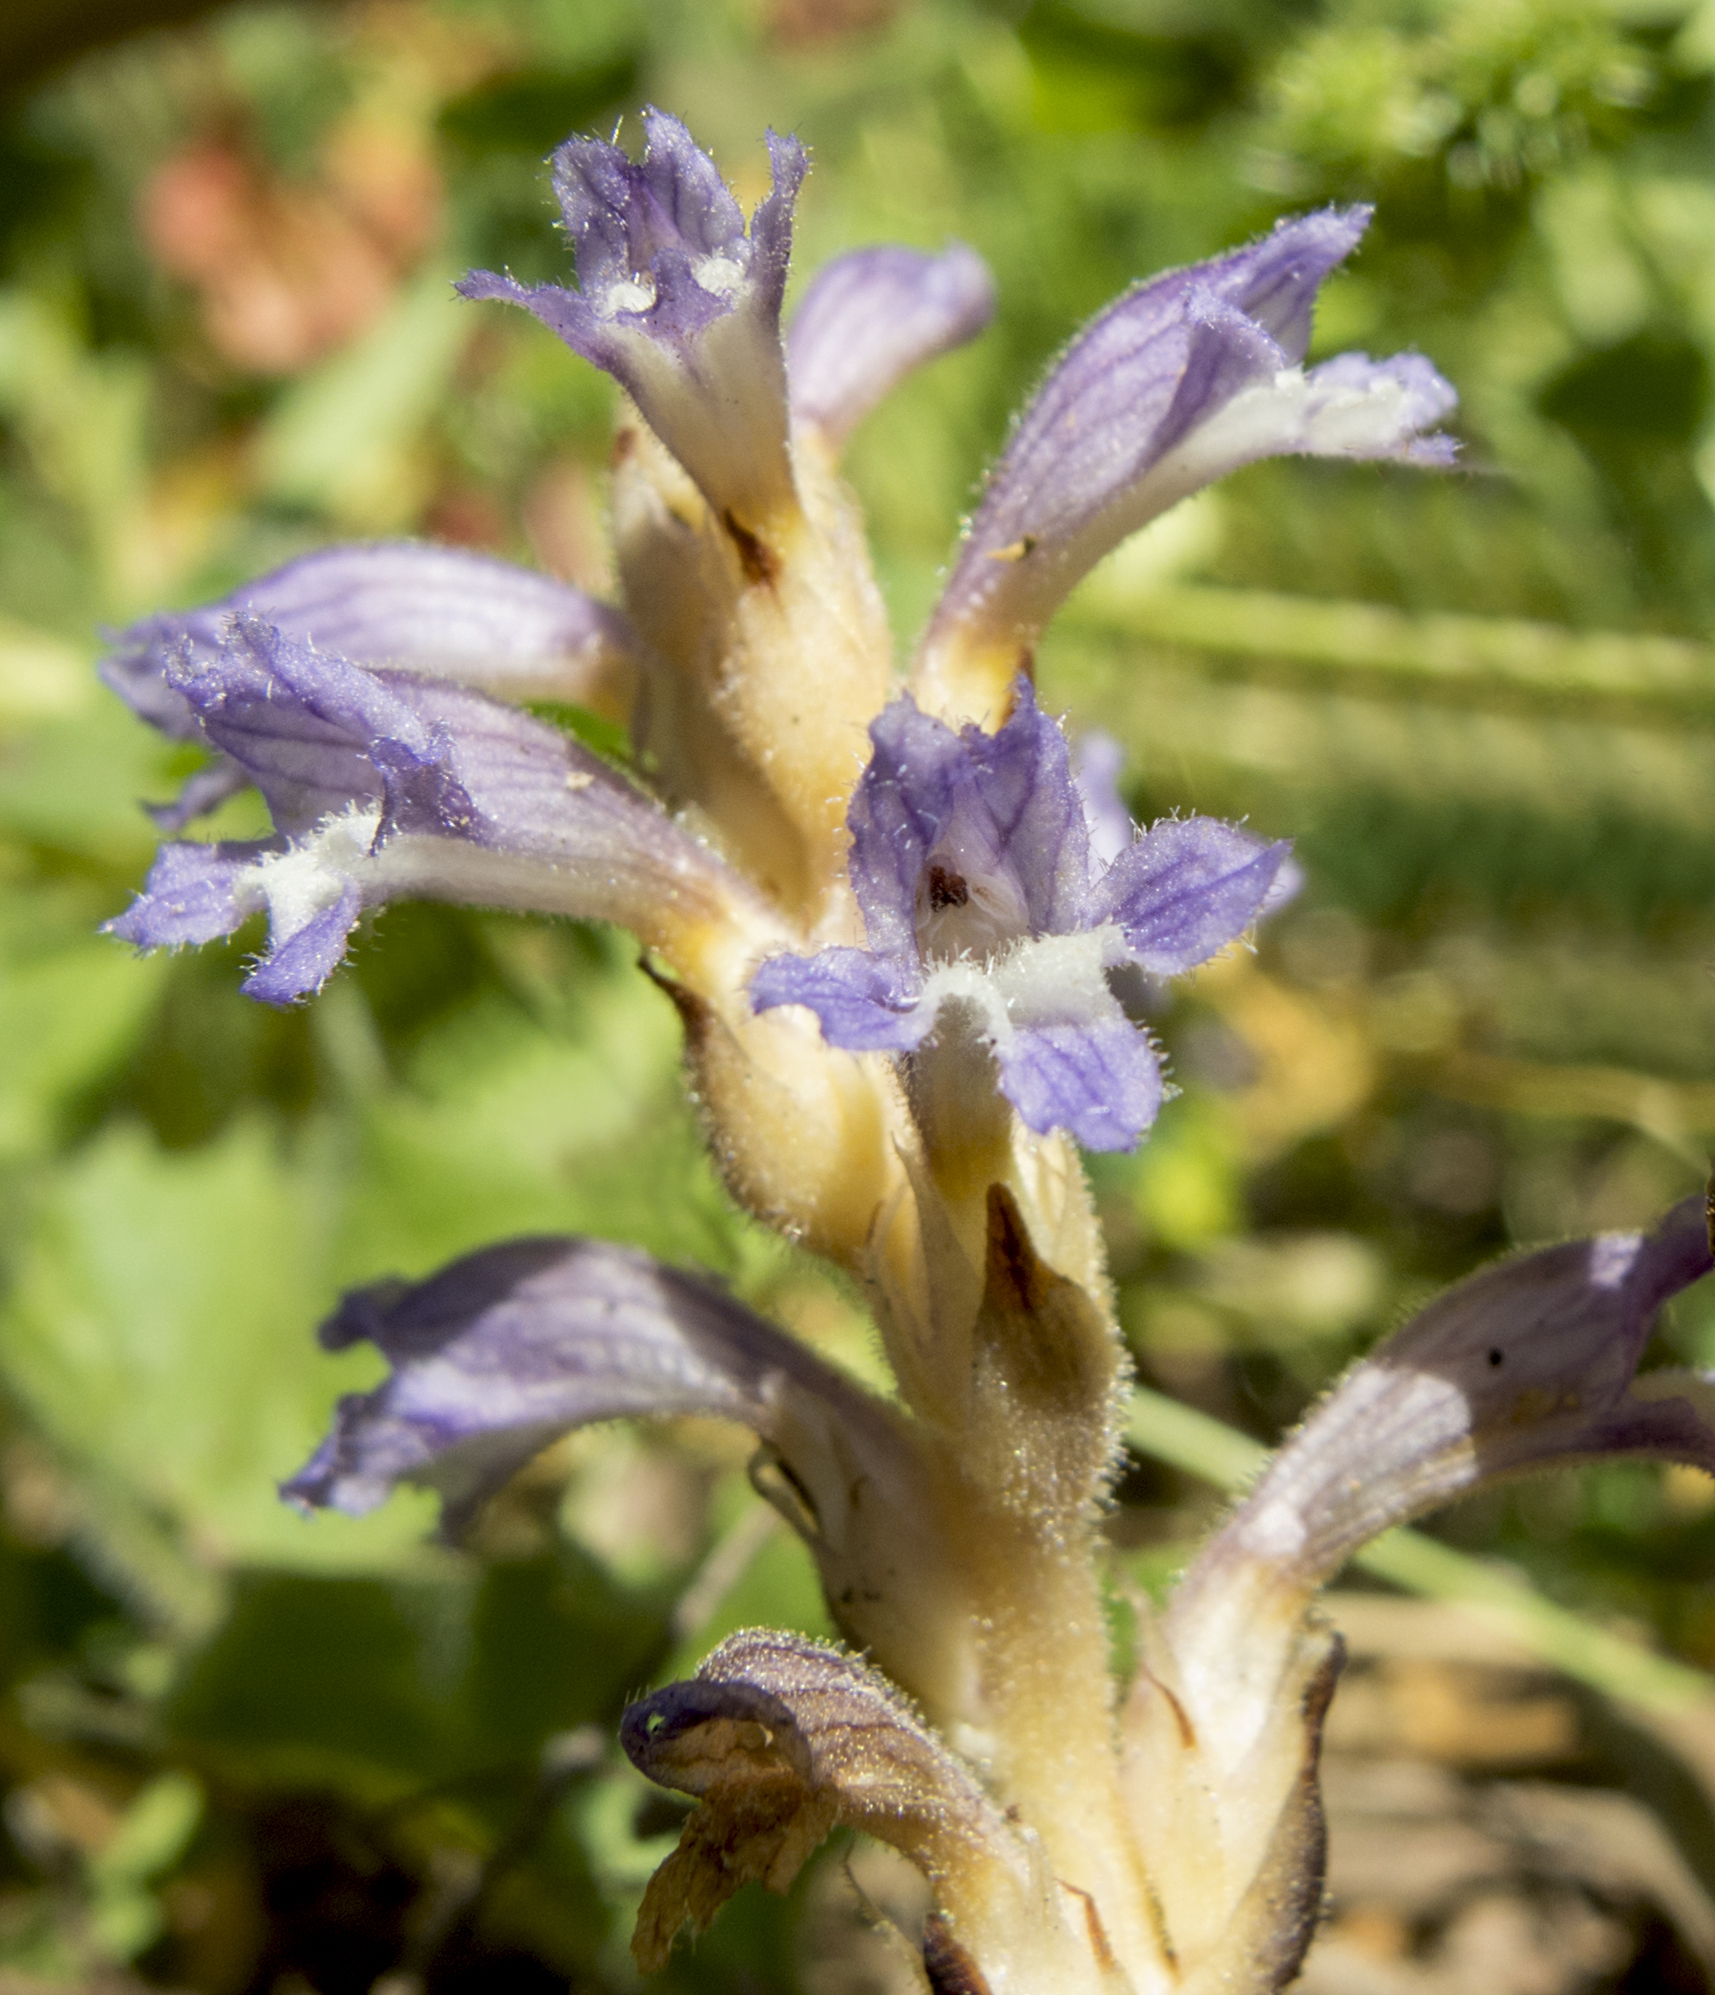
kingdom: Plantae
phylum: Tracheophyta
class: Magnoliopsida
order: Lamiales
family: Orobanchaceae
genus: Phelipanche
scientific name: Phelipanche mutelii
